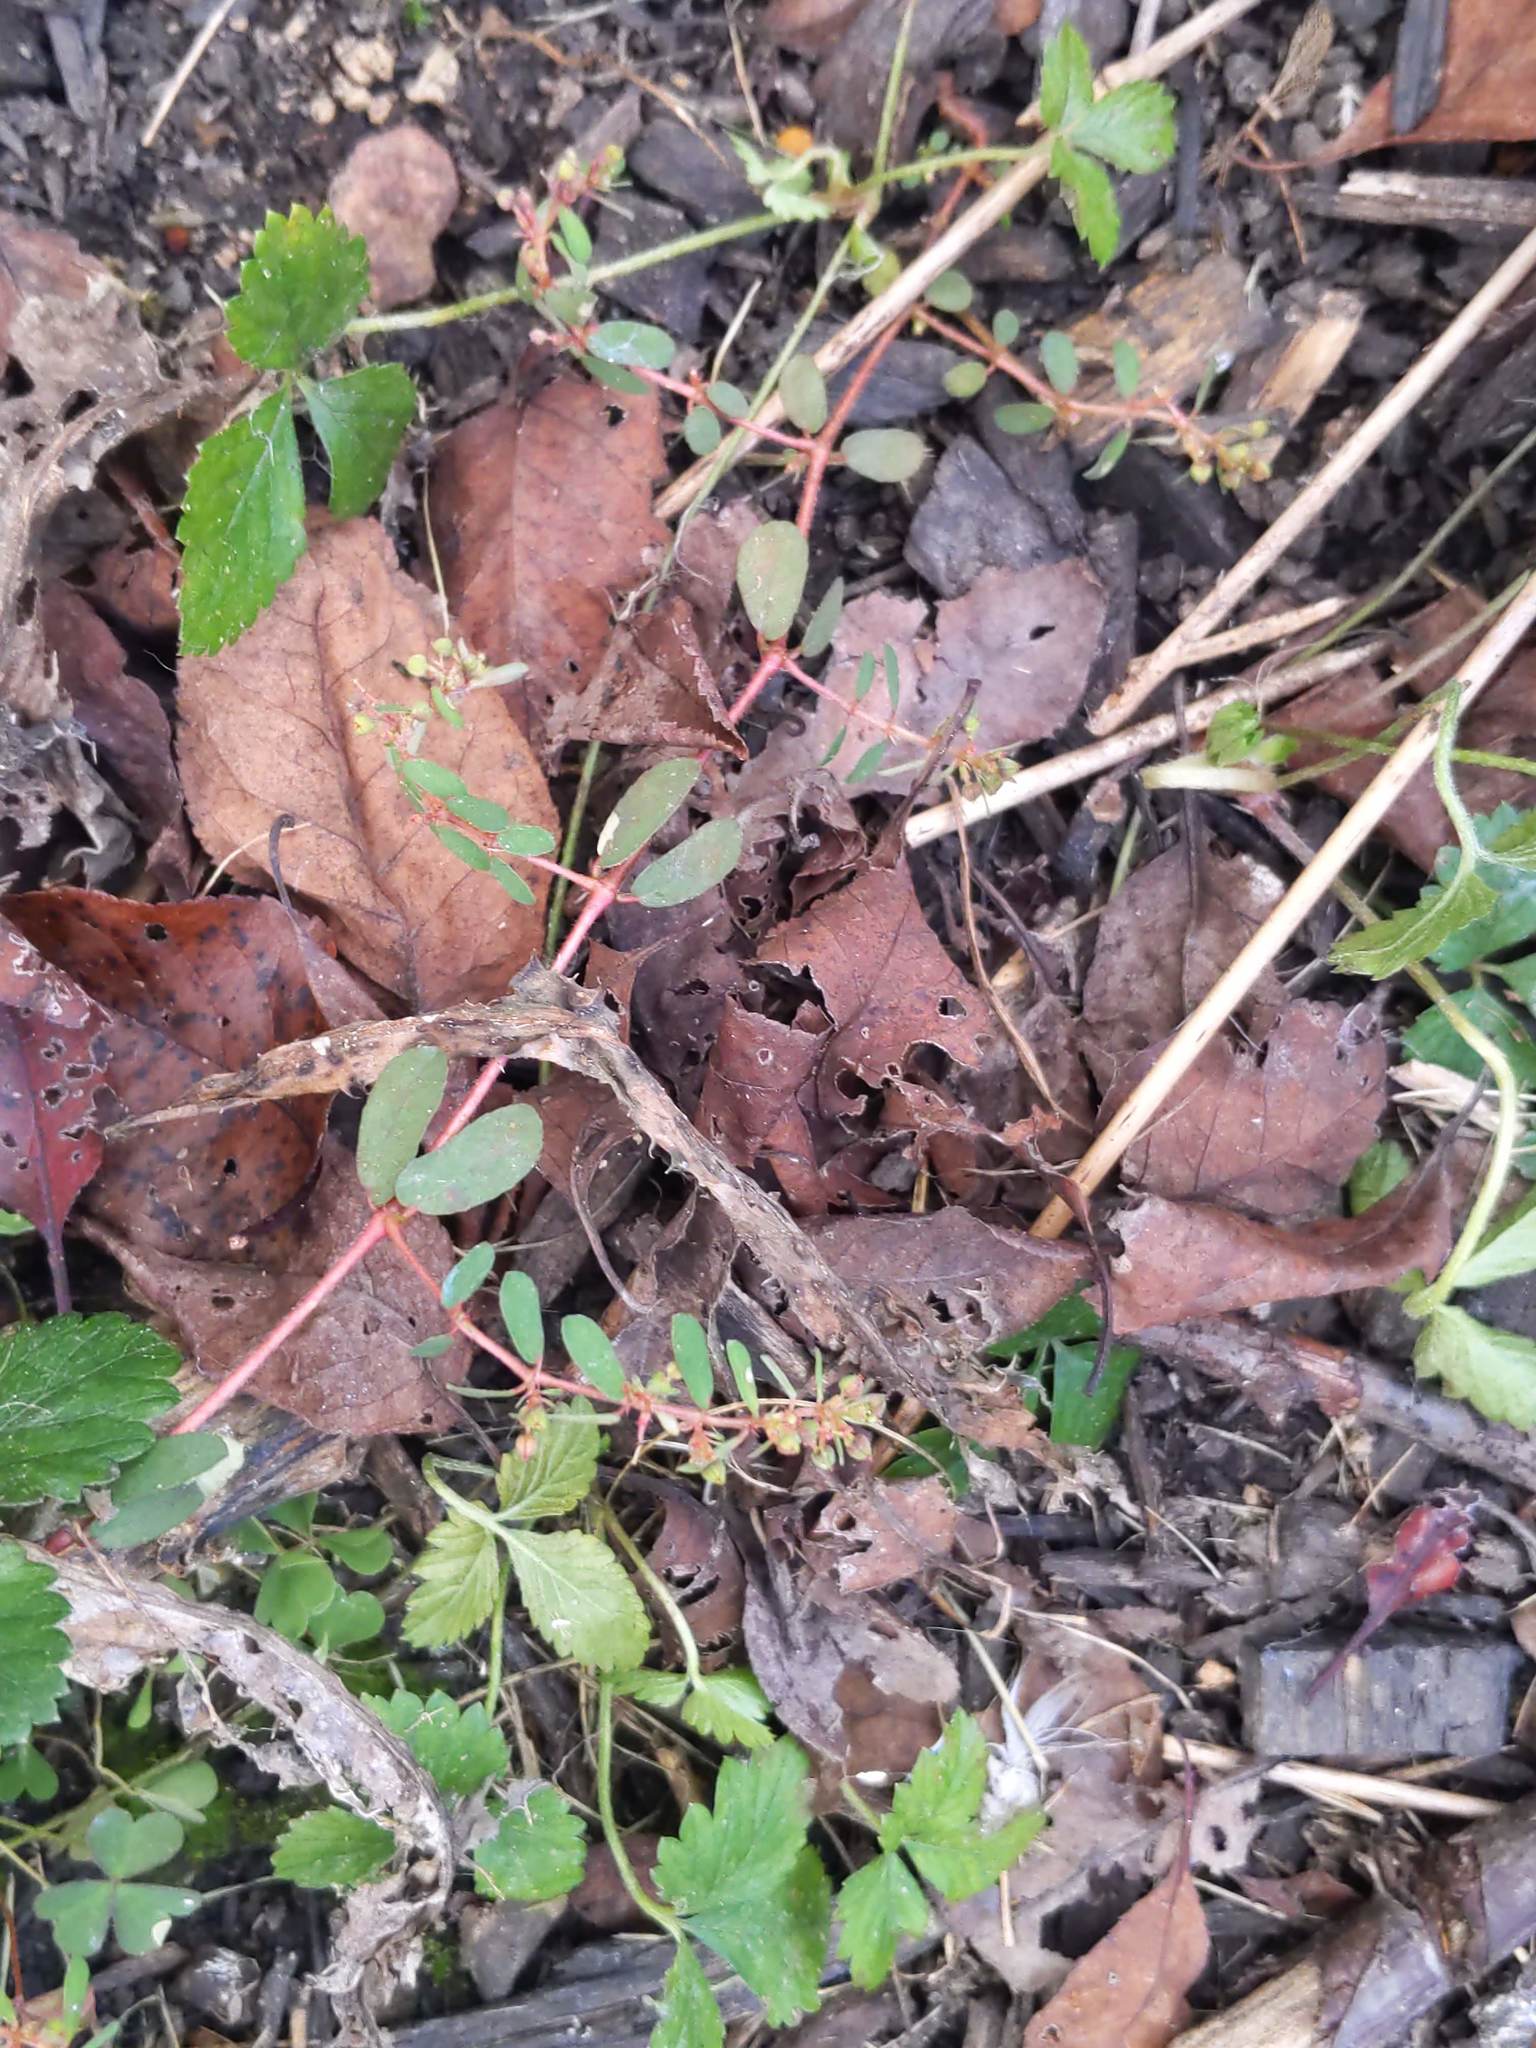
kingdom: Plantae
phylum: Tracheophyta
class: Magnoliopsida
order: Malpighiales
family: Euphorbiaceae
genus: Euphorbia
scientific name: Euphorbia maculata
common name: Spotted spurge
